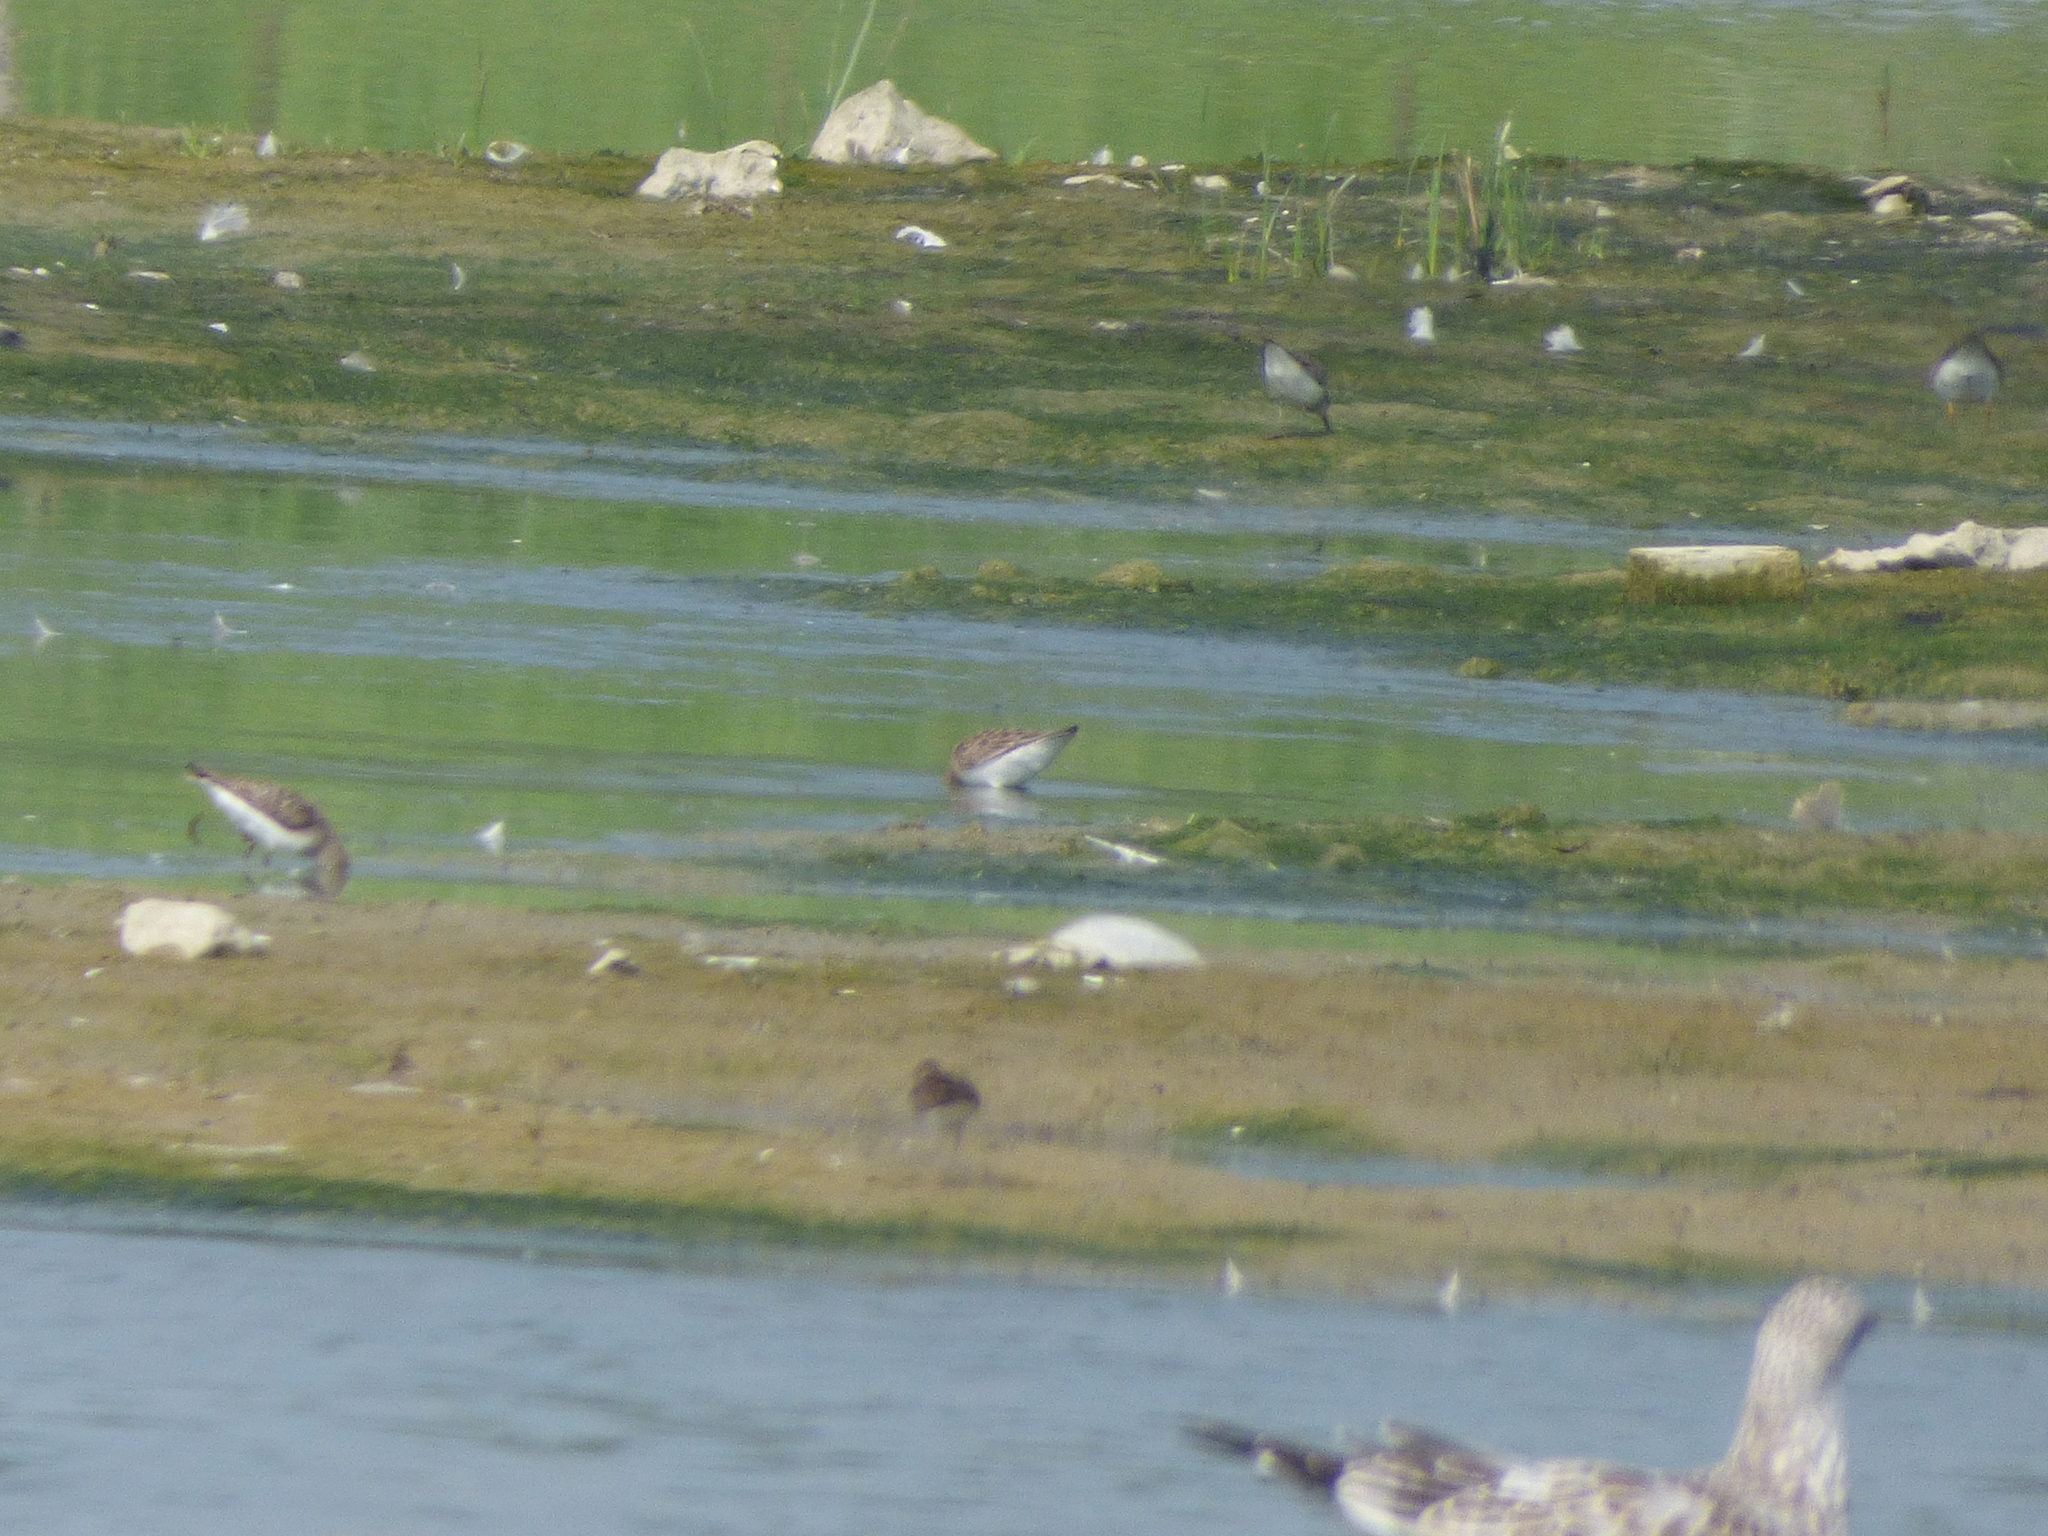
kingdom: Animalia
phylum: Chordata
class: Aves
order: Charadriiformes
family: Scolopacidae
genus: Calidris
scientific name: Calidris pusilla
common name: Semipalmated sandpiper
